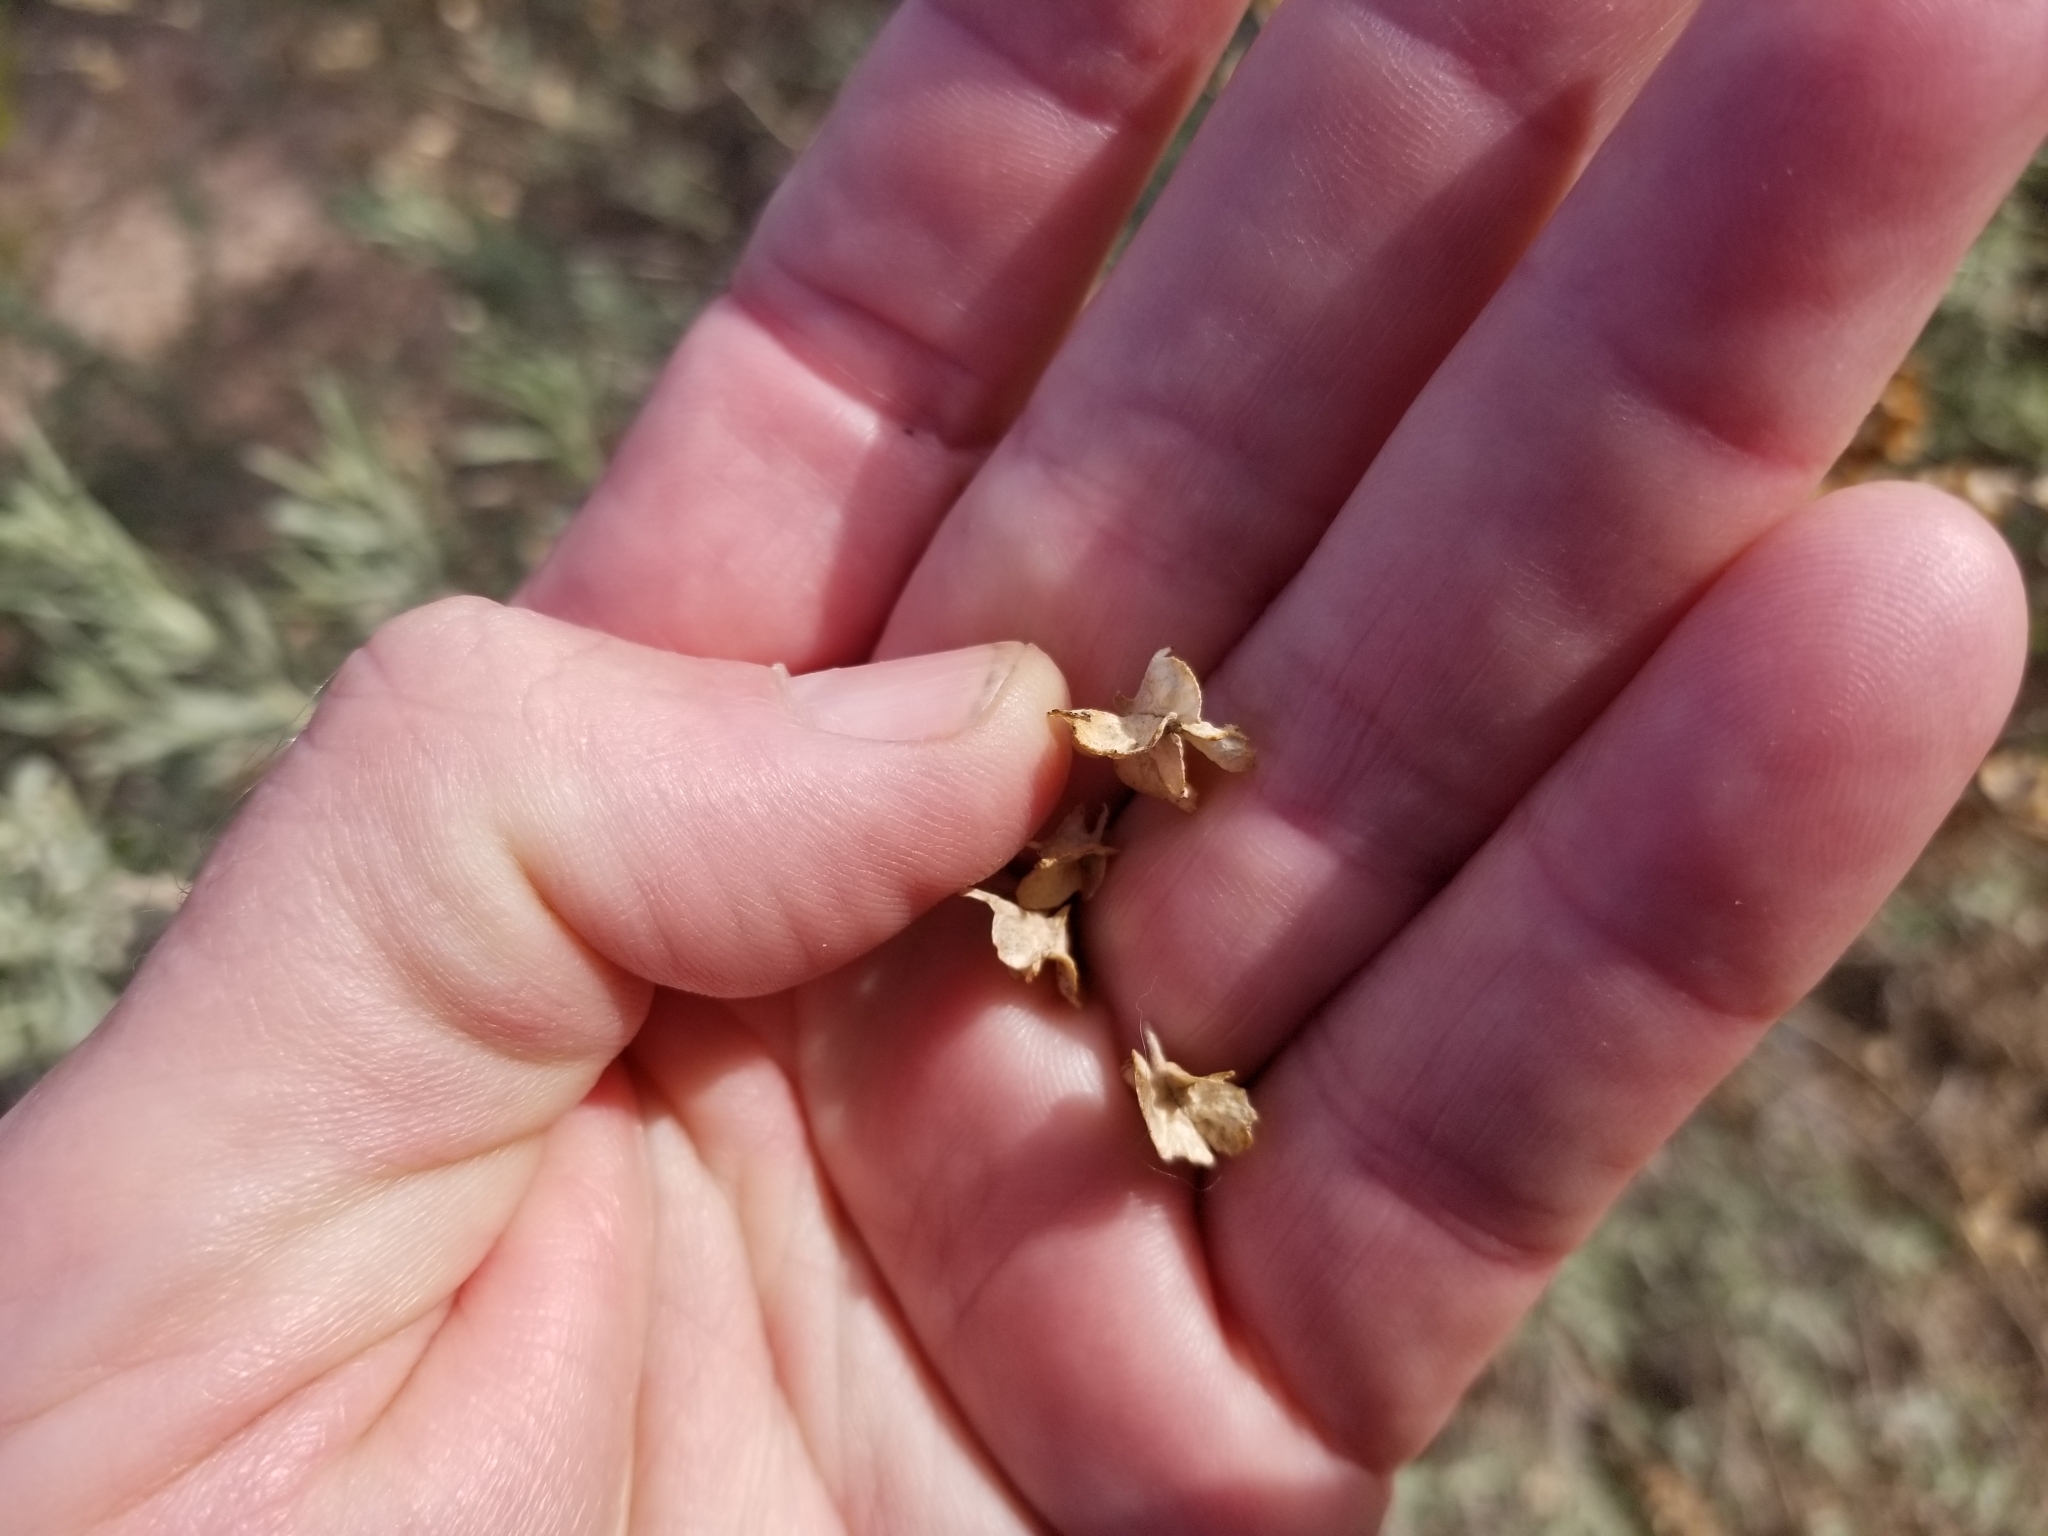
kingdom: Plantae
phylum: Tracheophyta
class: Magnoliopsida
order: Caryophyllales
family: Amaranthaceae
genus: Atriplex
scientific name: Atriplex canescens
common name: Four-wing saltbush
